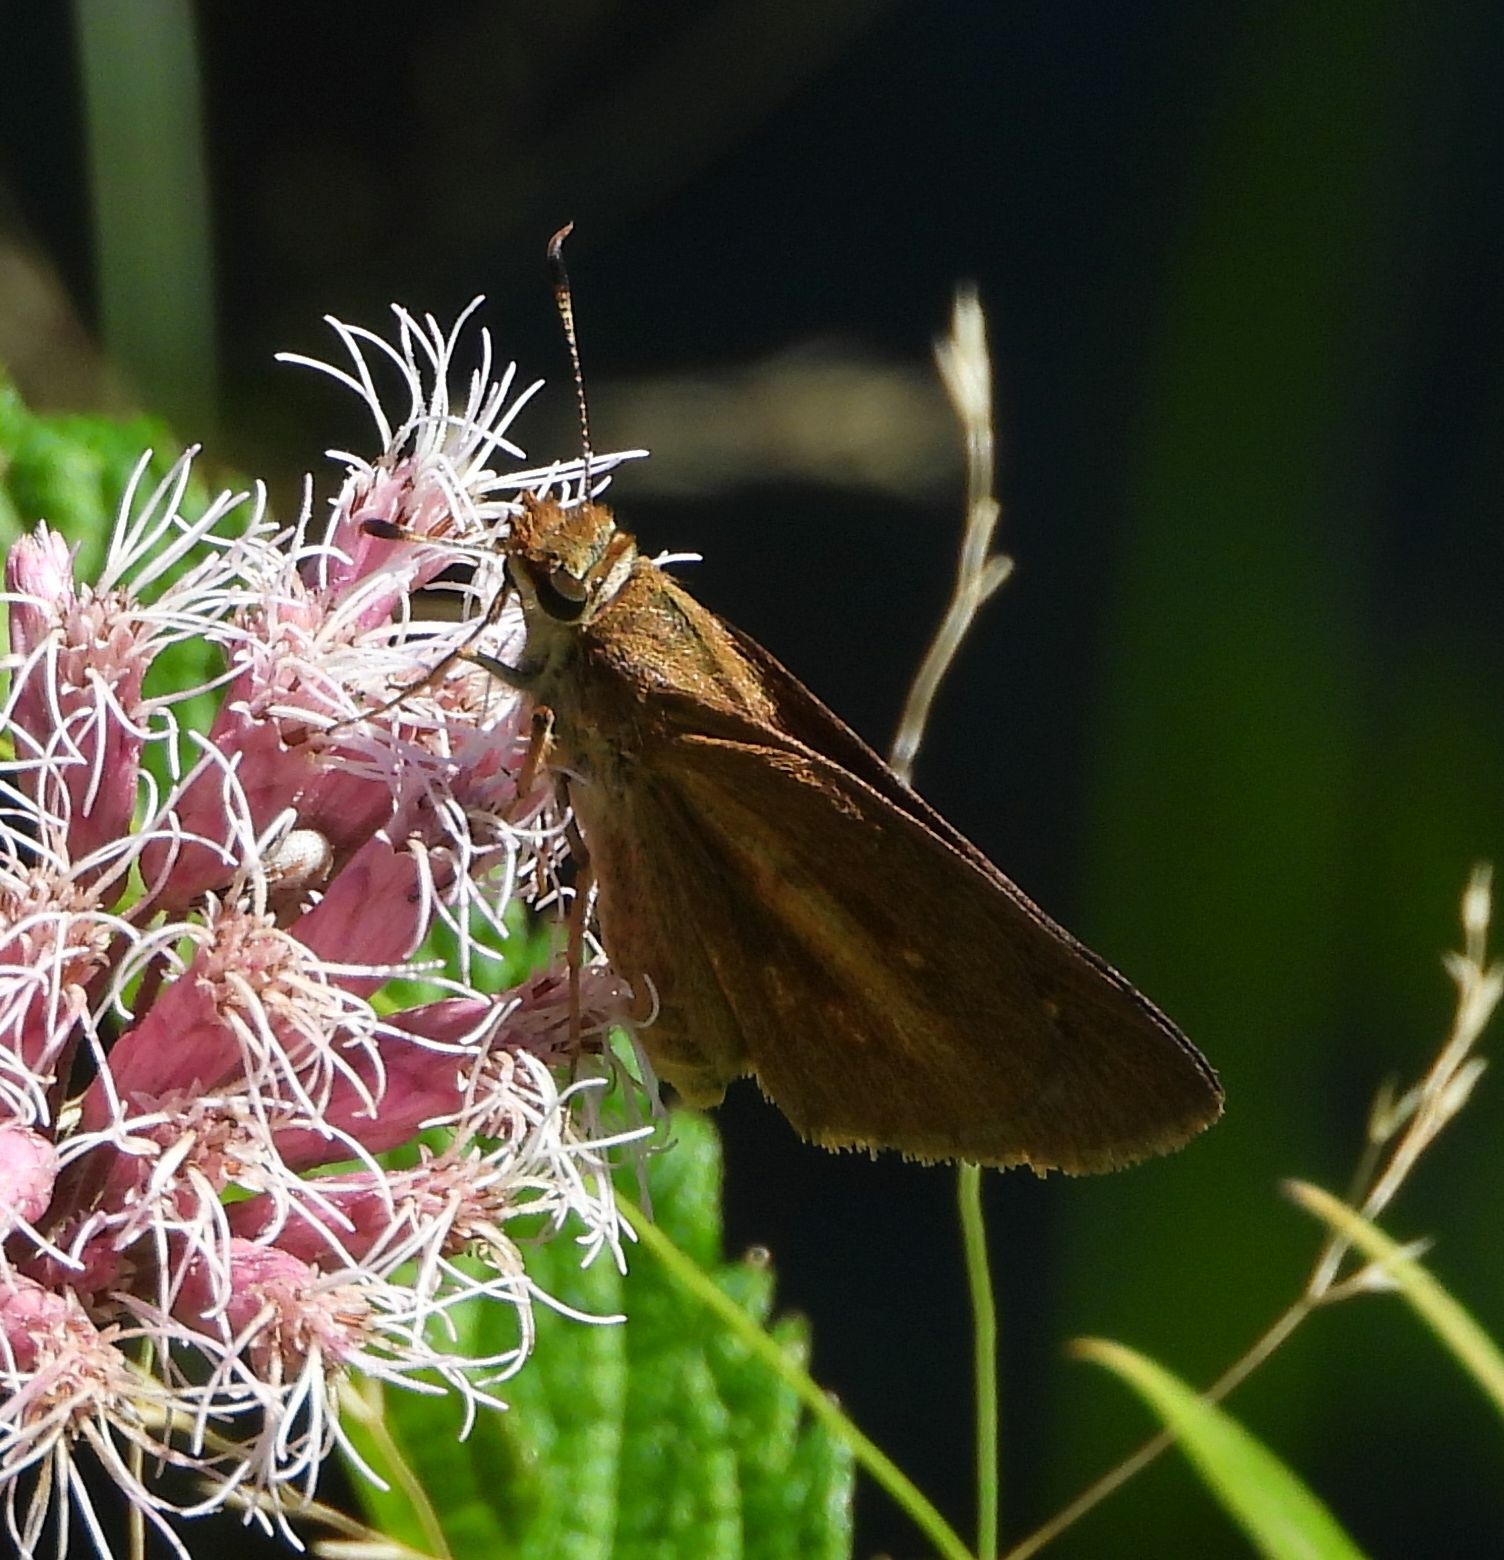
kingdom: Animalia
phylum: Arthropoda
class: Insecta
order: Lepidoptera
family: Hesperiidae
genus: Poanes
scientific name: Poanes viator
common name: Broad-winged skipper
